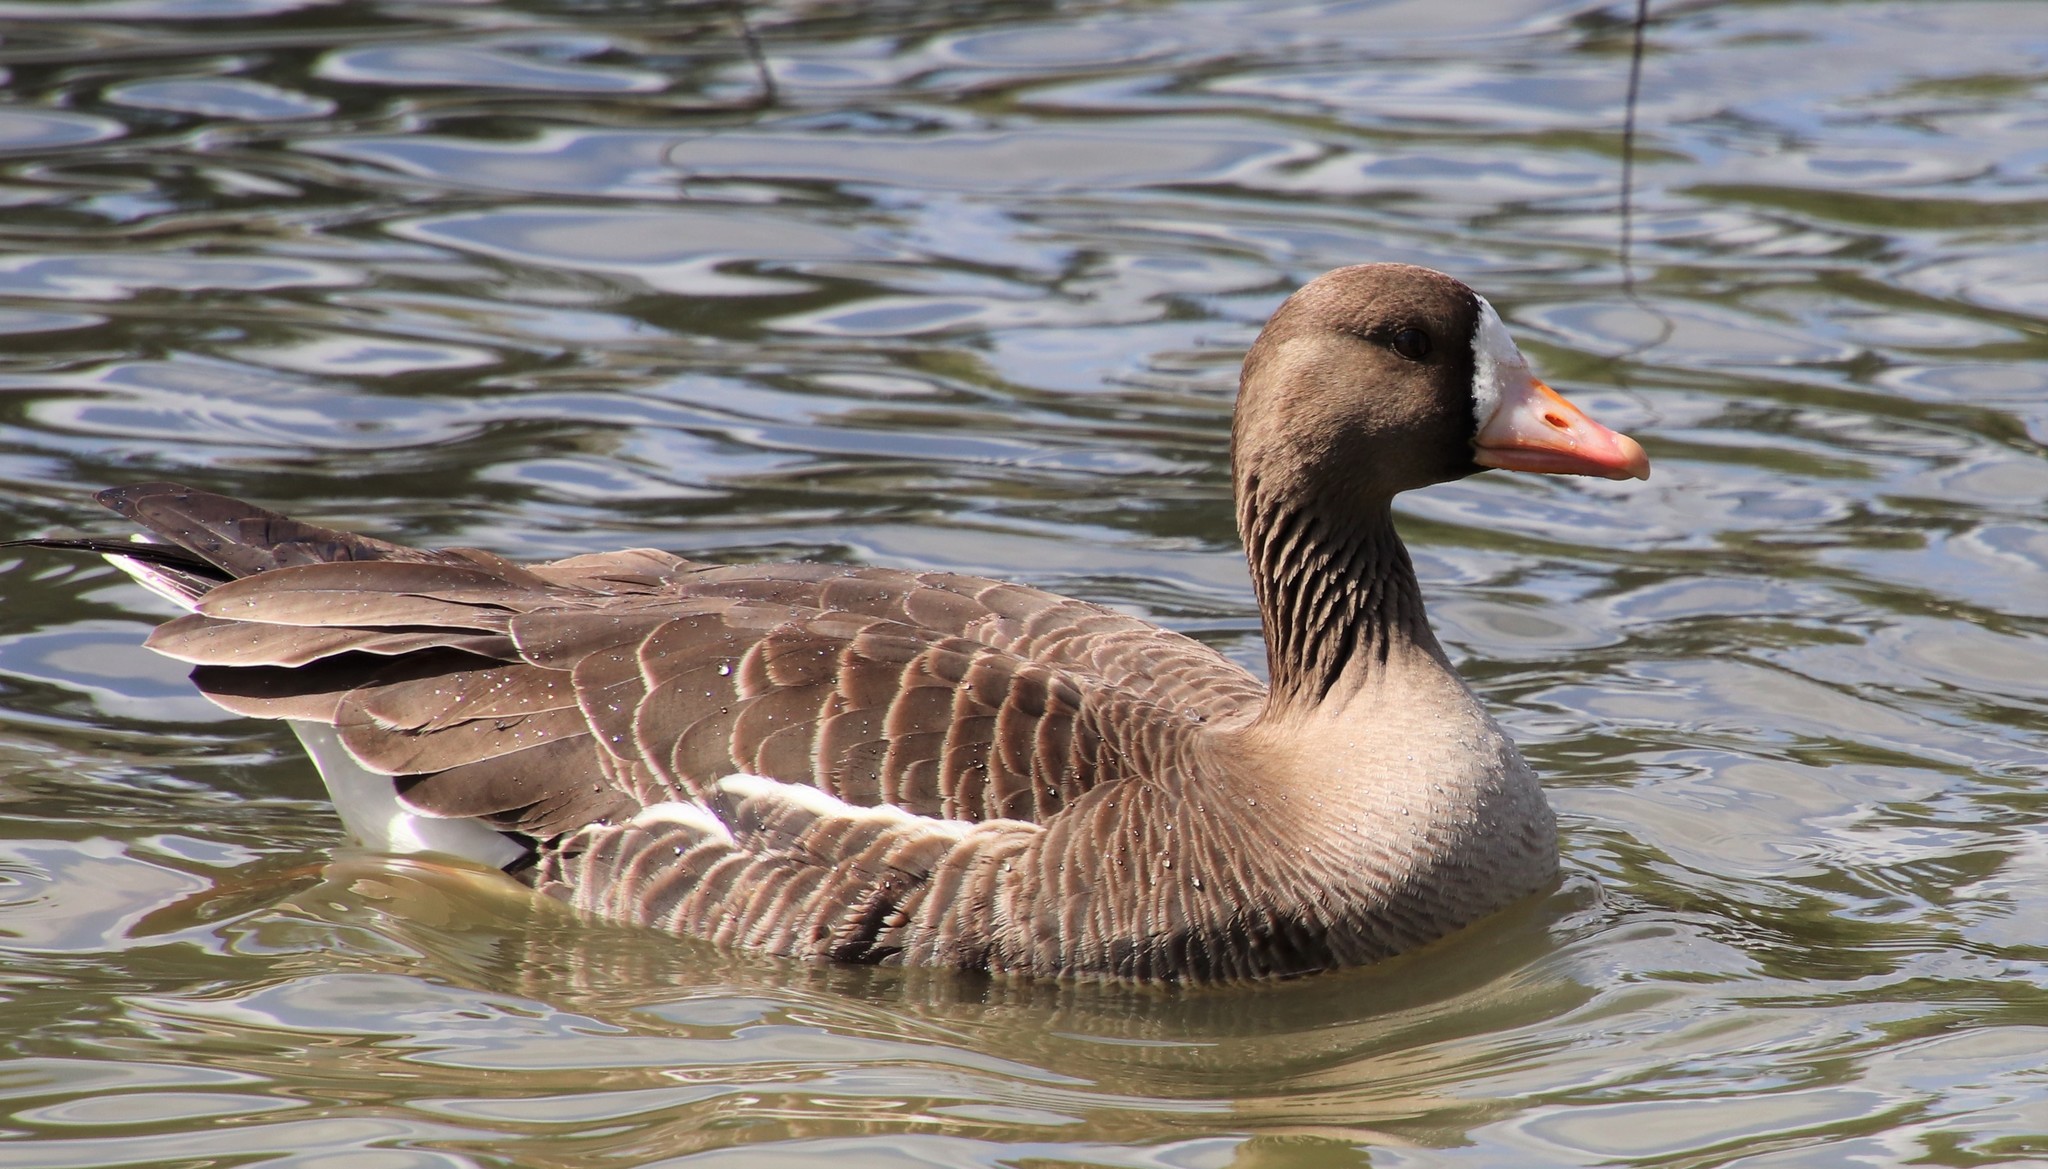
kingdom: Animalia
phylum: Chordata
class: Aves
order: Anseriformes
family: Anatidae
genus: Anser
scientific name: Anser albifrons
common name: Greater white-fronted goose
